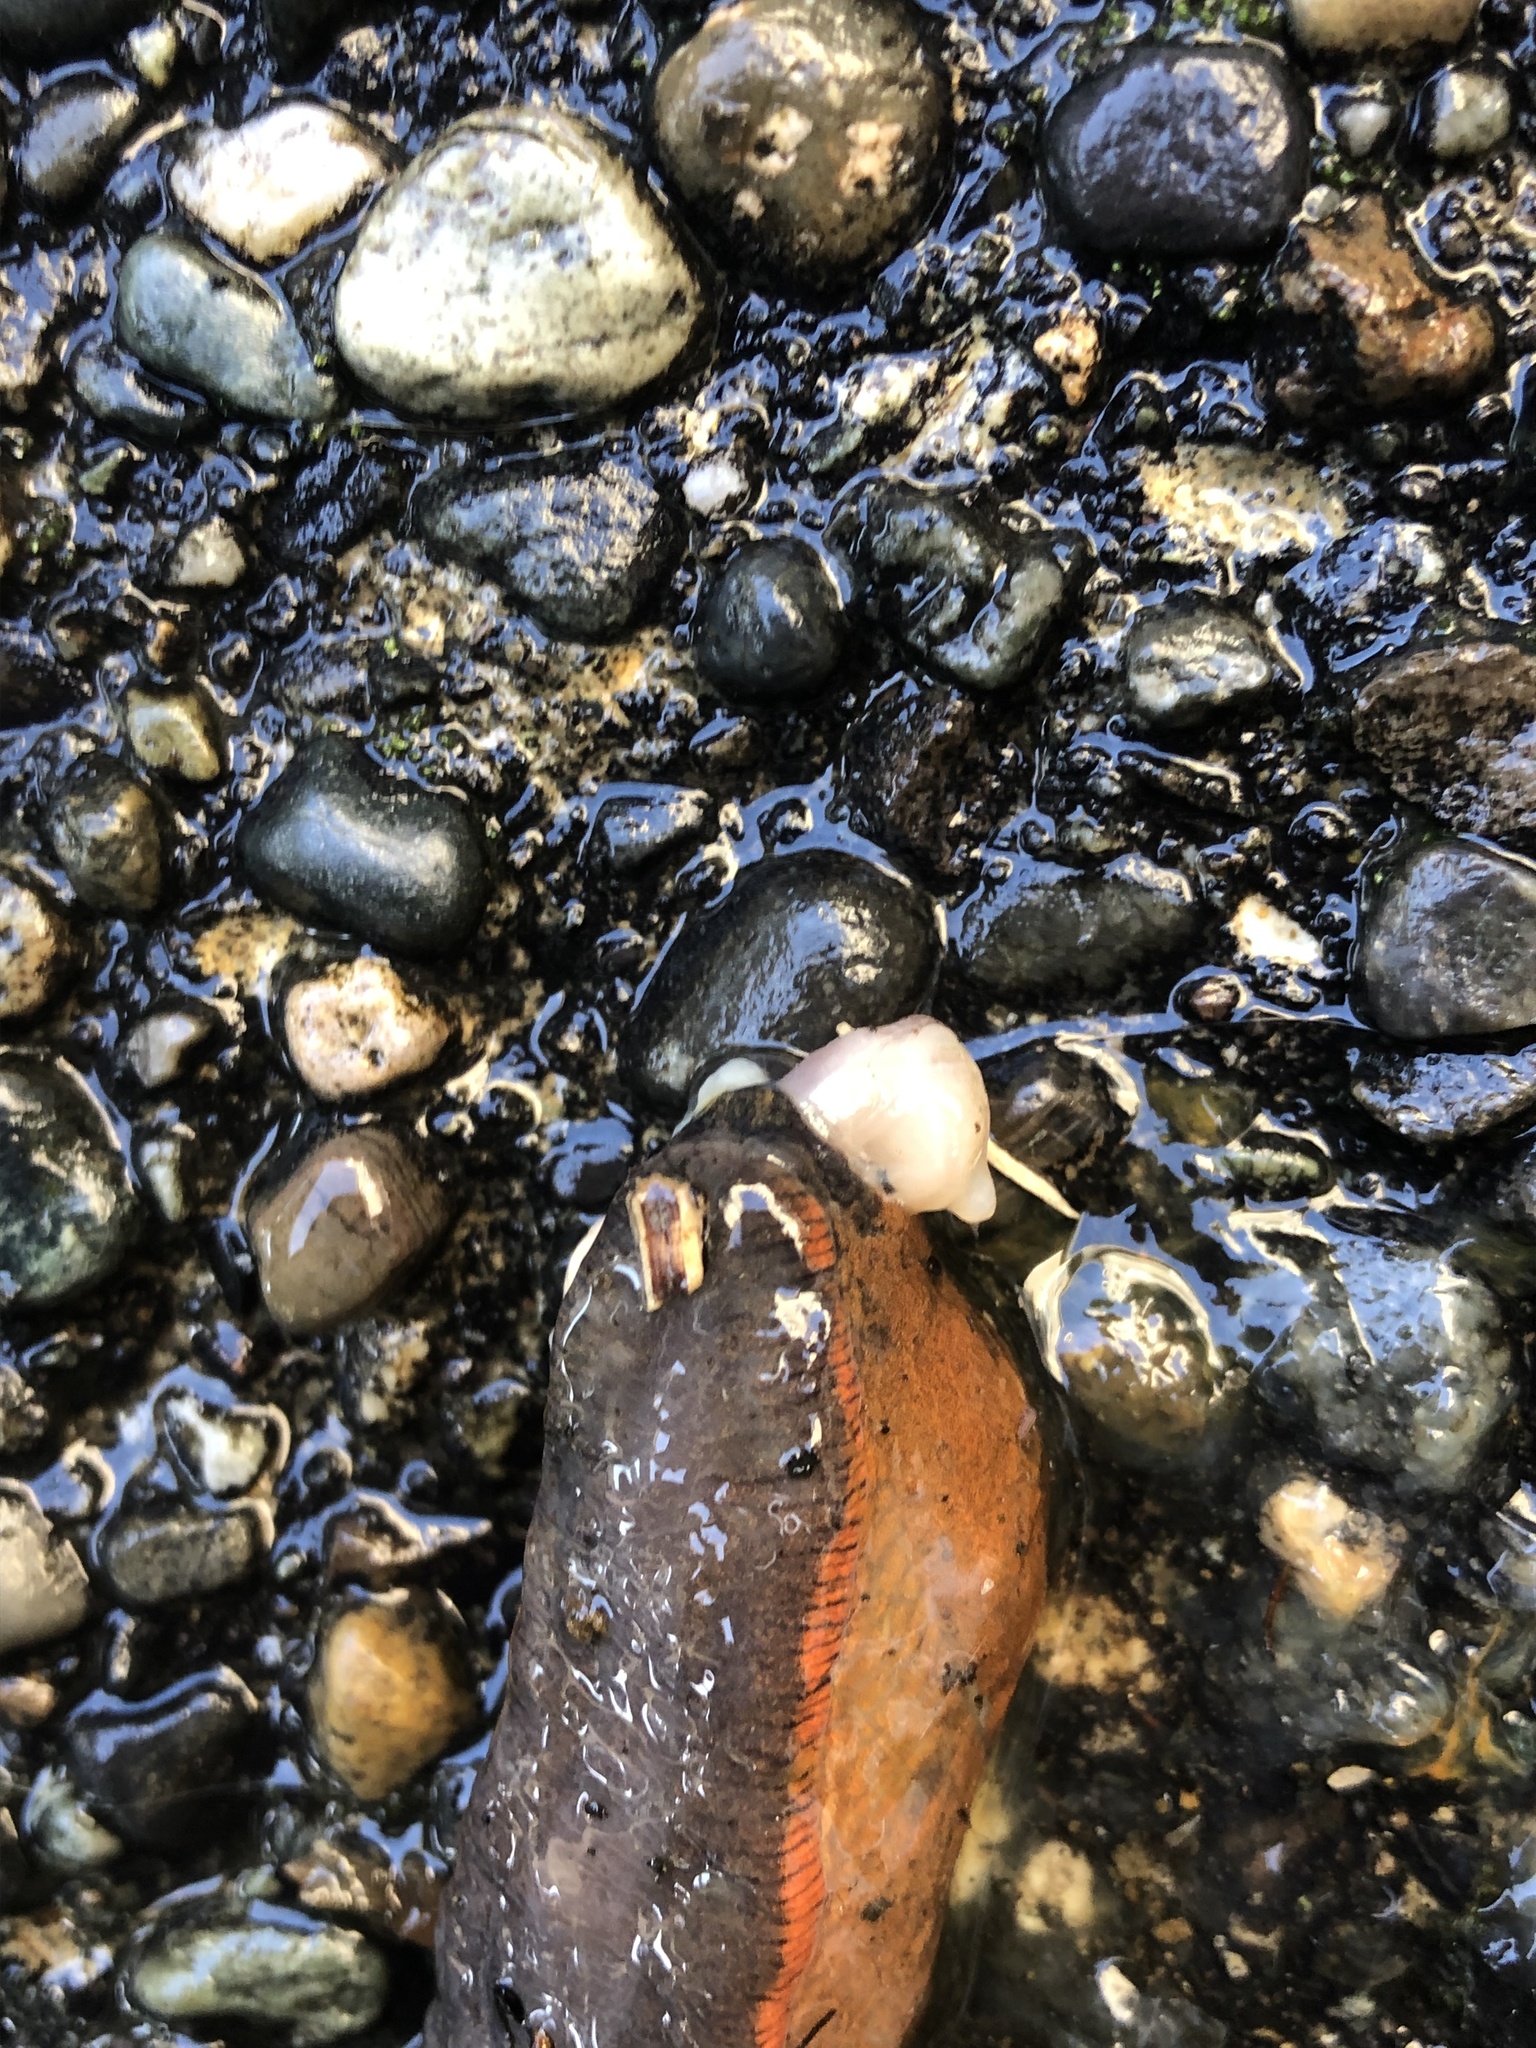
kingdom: Animalia
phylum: Mollusca
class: Gastropoda
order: Stylommatophora
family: Arionidae
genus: Arion
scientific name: Arion
